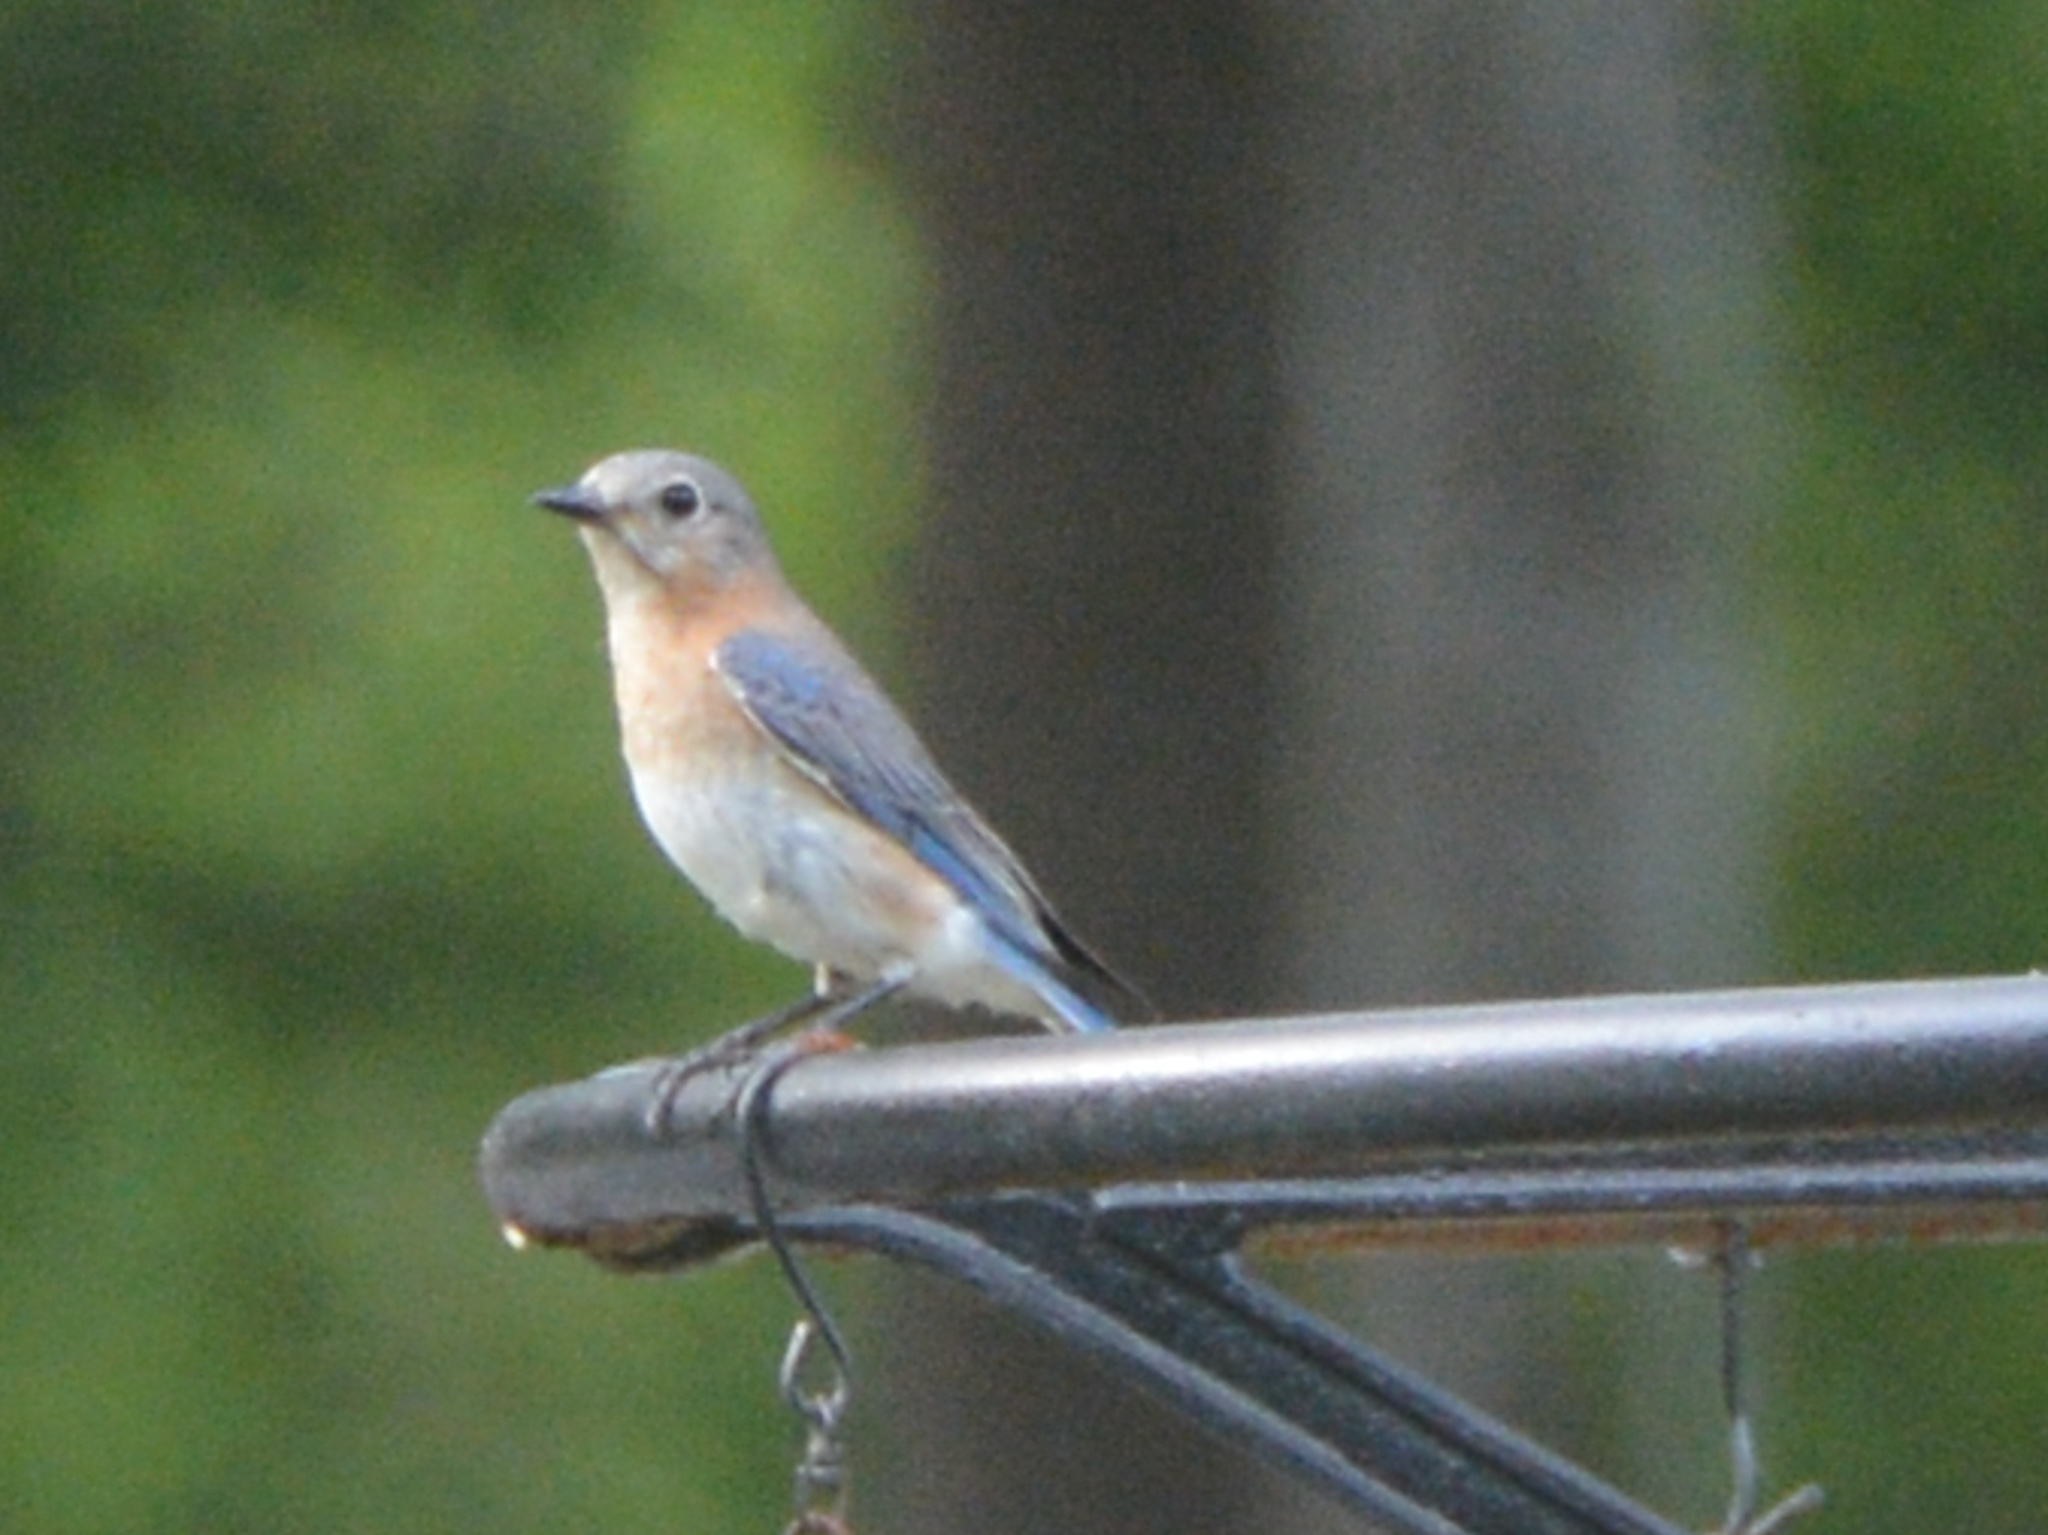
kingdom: Animalia
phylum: Chordata
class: Aves
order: Passeriformes
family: Turdidae
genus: Sialia
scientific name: Sialia sialis
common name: Eastern bluebird
